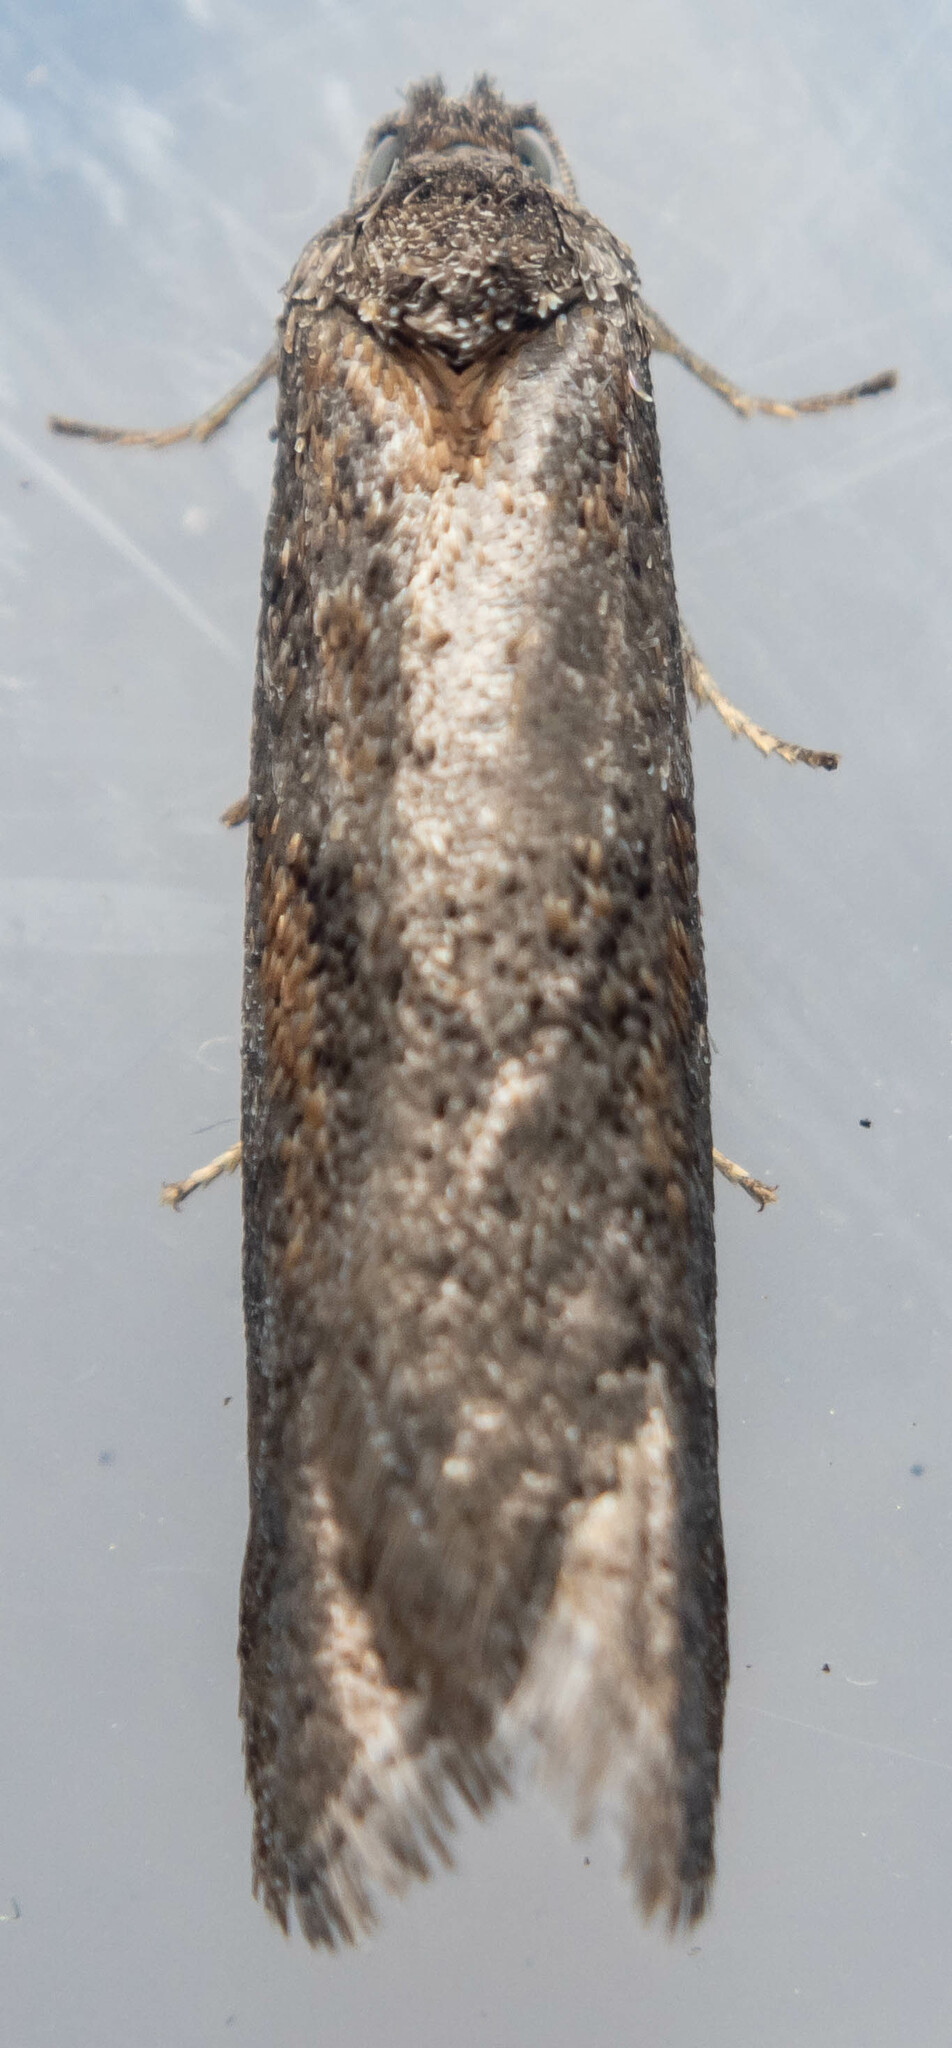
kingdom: Animalia
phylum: Arthropoda
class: Insecta
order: Lepidoptera
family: Tortricidae
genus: Tortricodes
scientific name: Tortricodes alternella
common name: Winter shade
